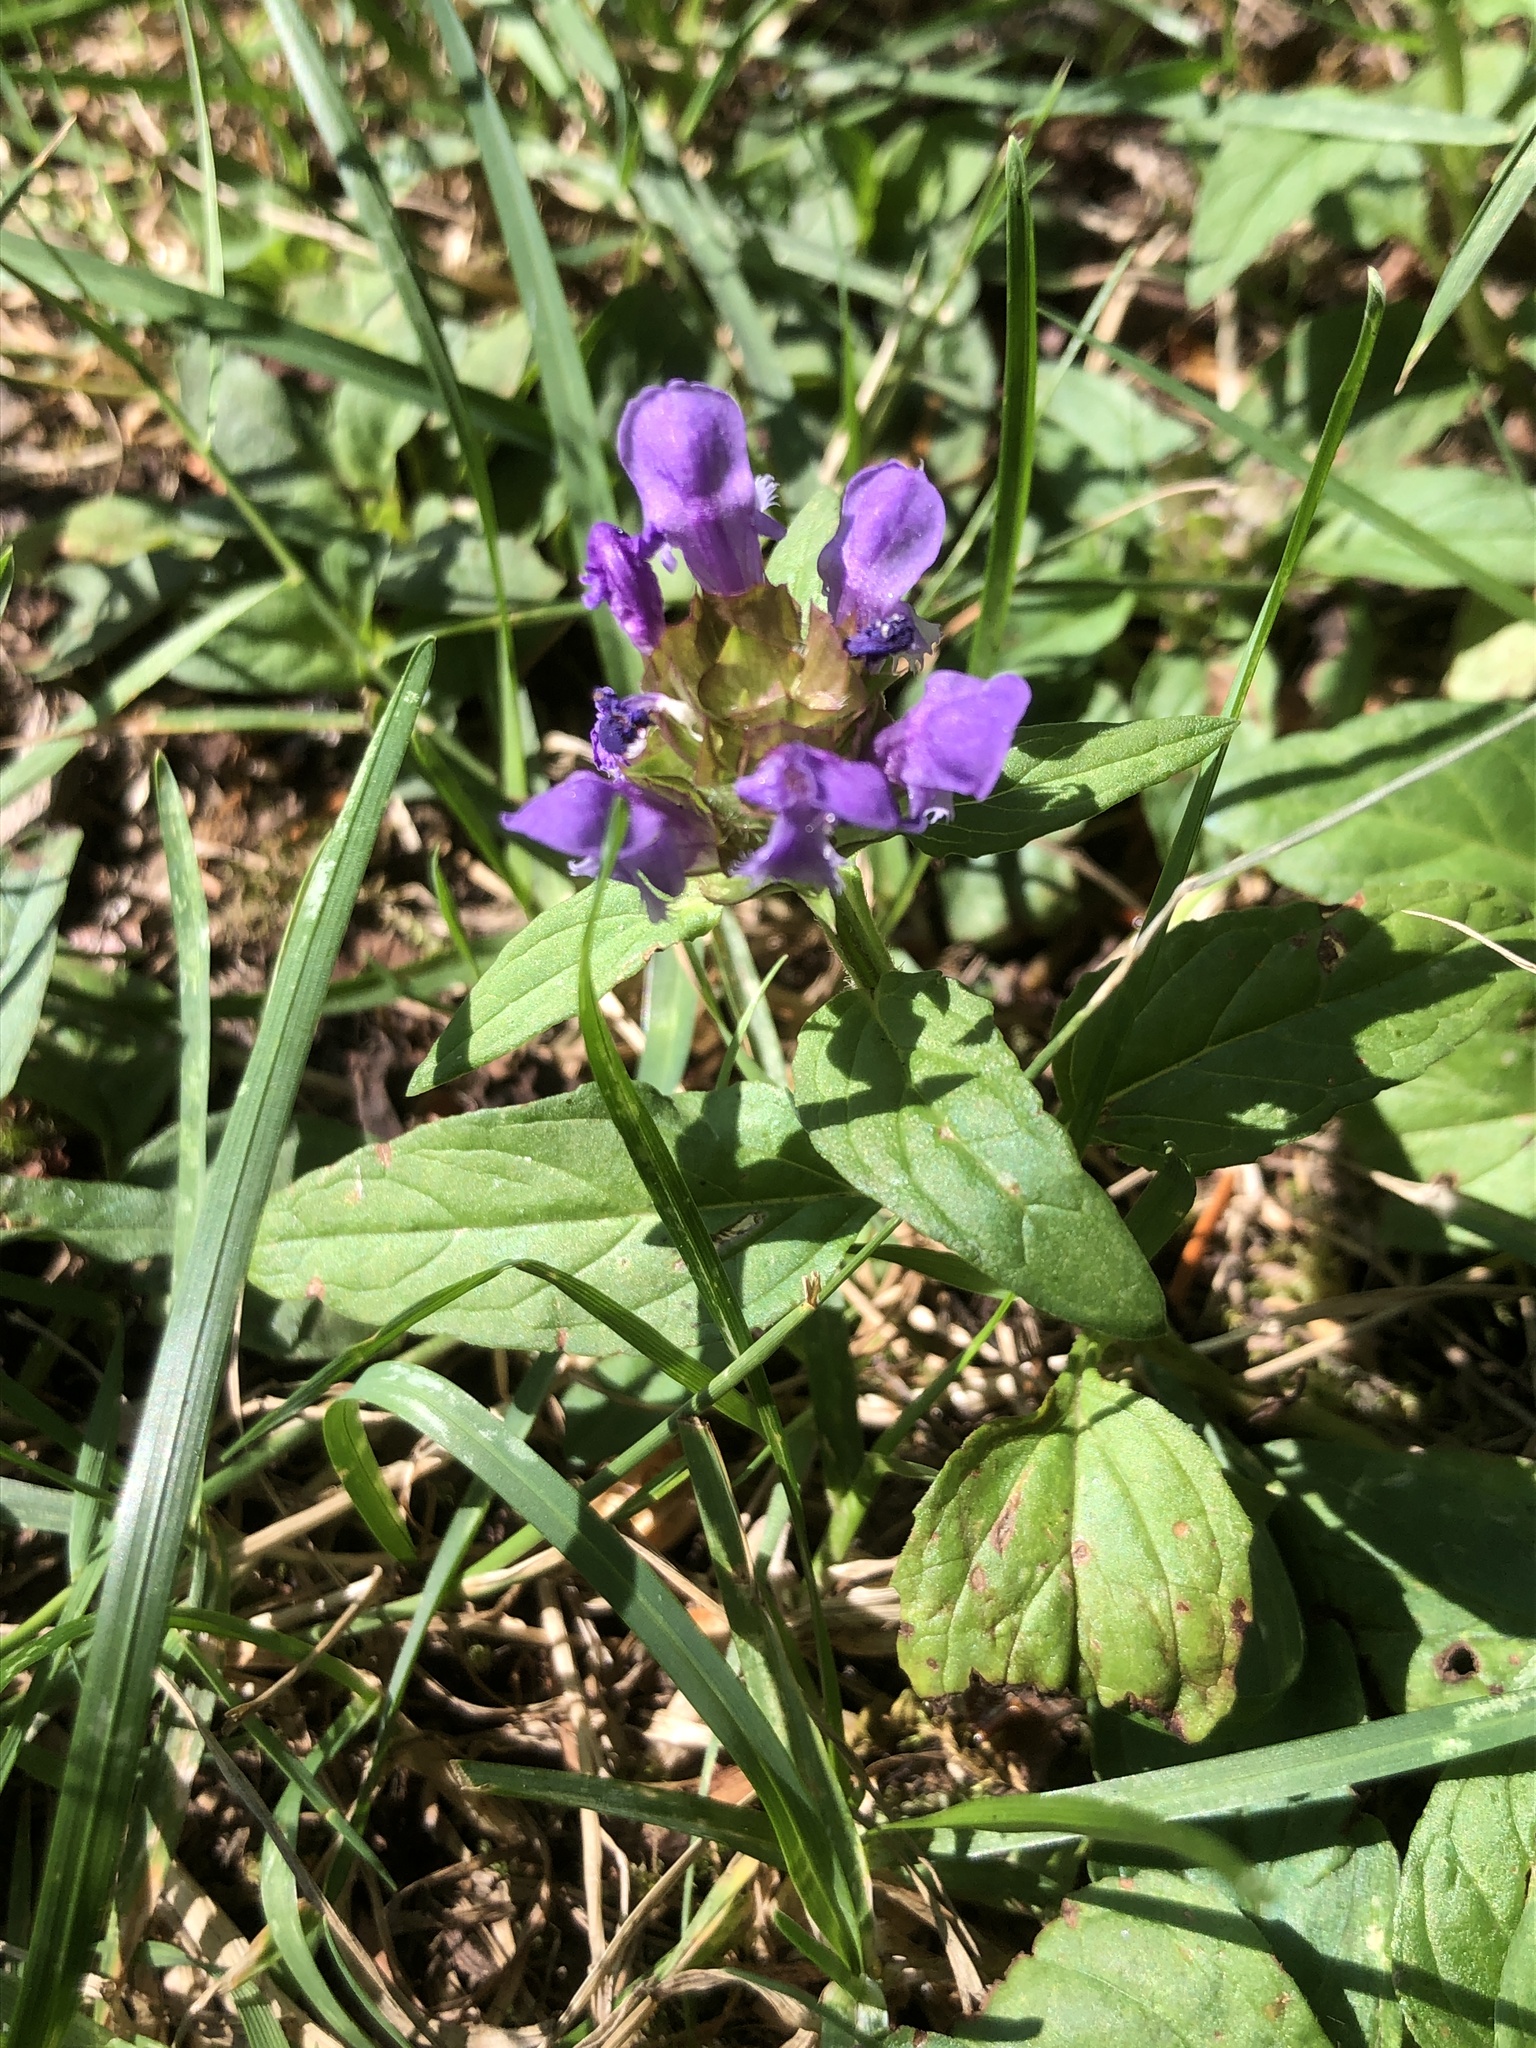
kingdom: Plantae
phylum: Tracheophyta
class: Magnoliopsida
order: Lamiales
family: Lamiaceae
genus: Prunella
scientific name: Prunella vulgaris
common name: Heal-all
